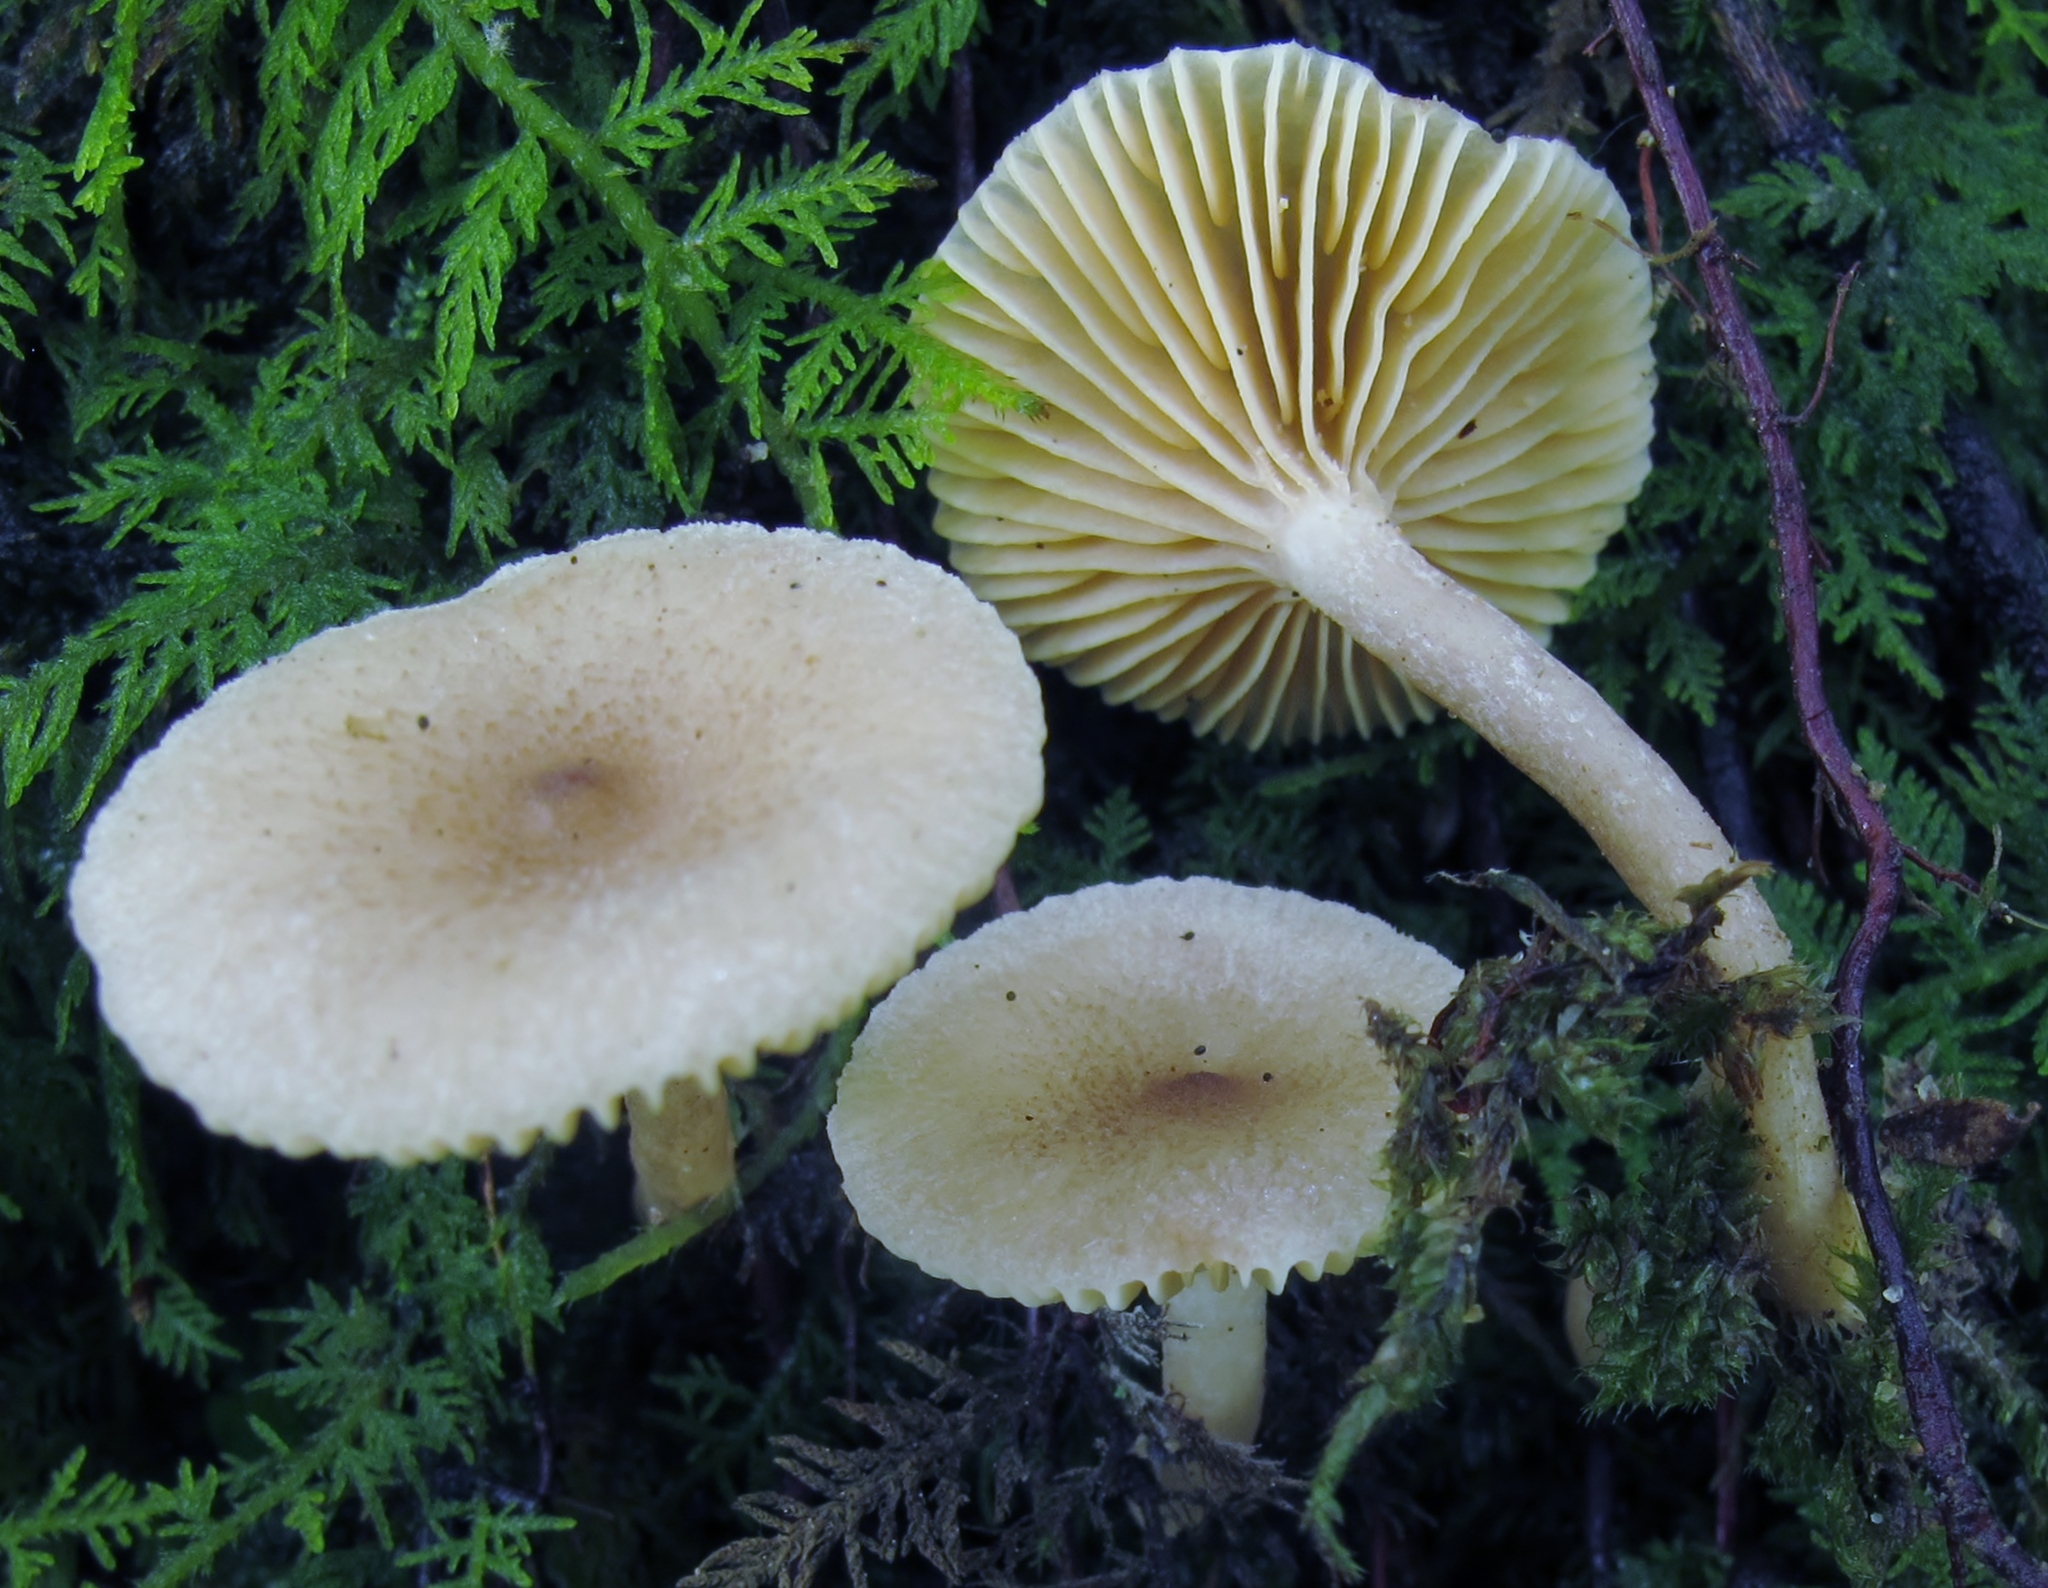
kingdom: Fungi
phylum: Basidiomycota
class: Agaricomycetes
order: Russulales
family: Russulaceae
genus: Lactarius
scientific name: Lactarius griseus
